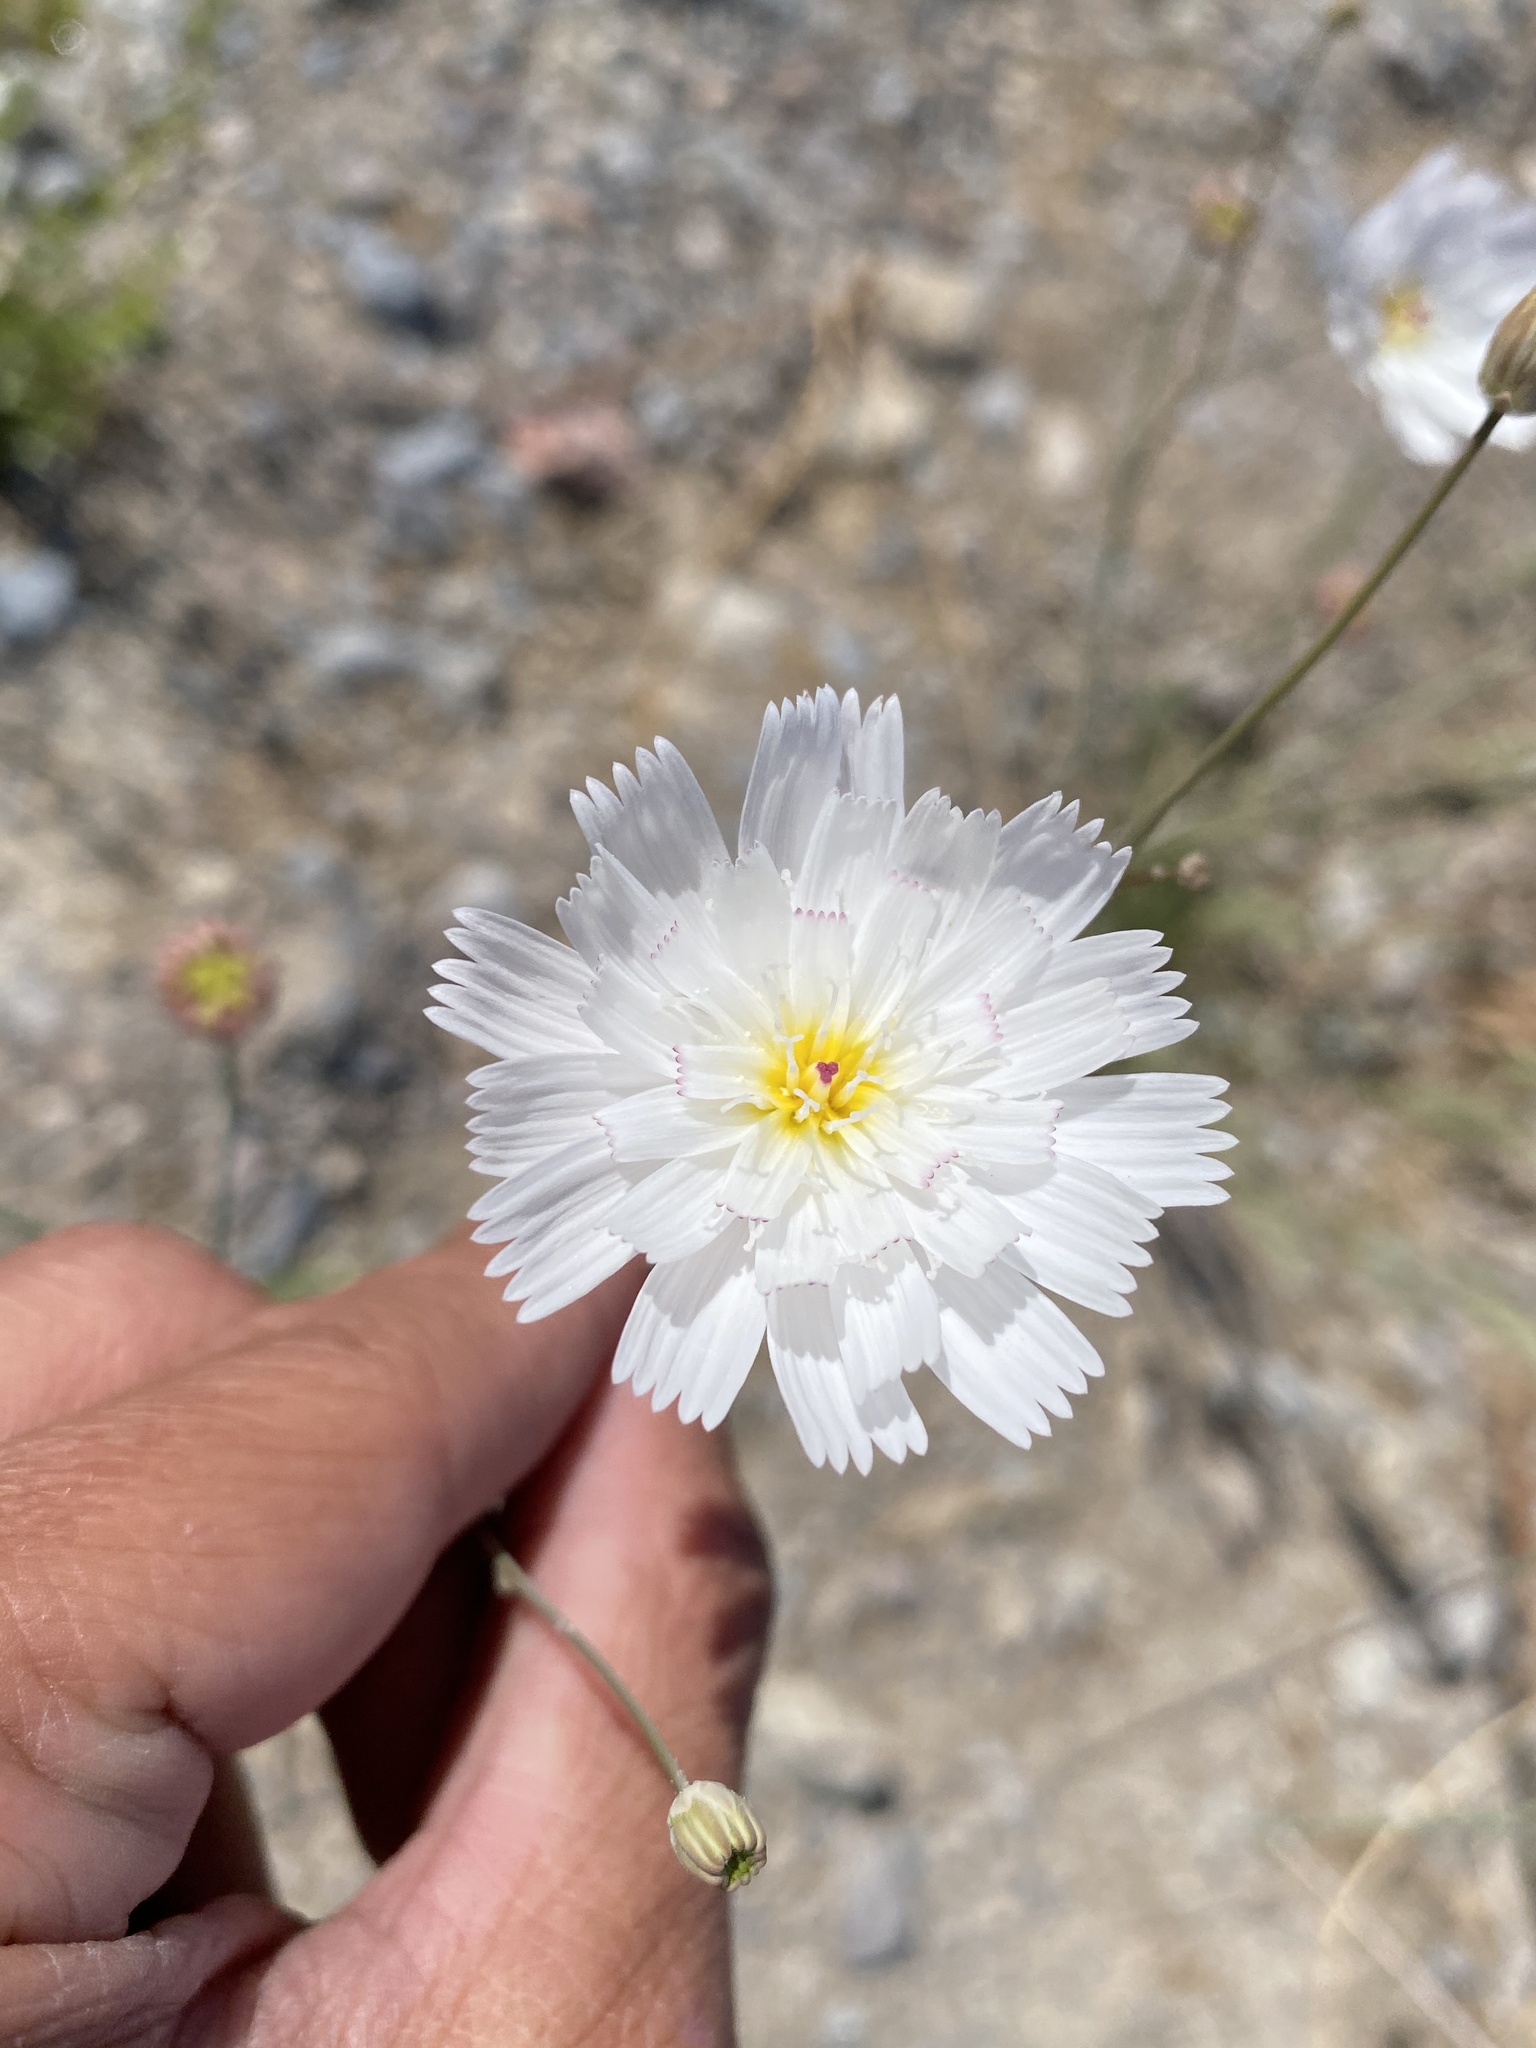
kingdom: Plantae
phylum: Tracheophyta
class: Magnoliopsida
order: Asterales
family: Asteraceae
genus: Atrichoseris
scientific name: Atrichoseris platyphylla
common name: Tobaccoweed
